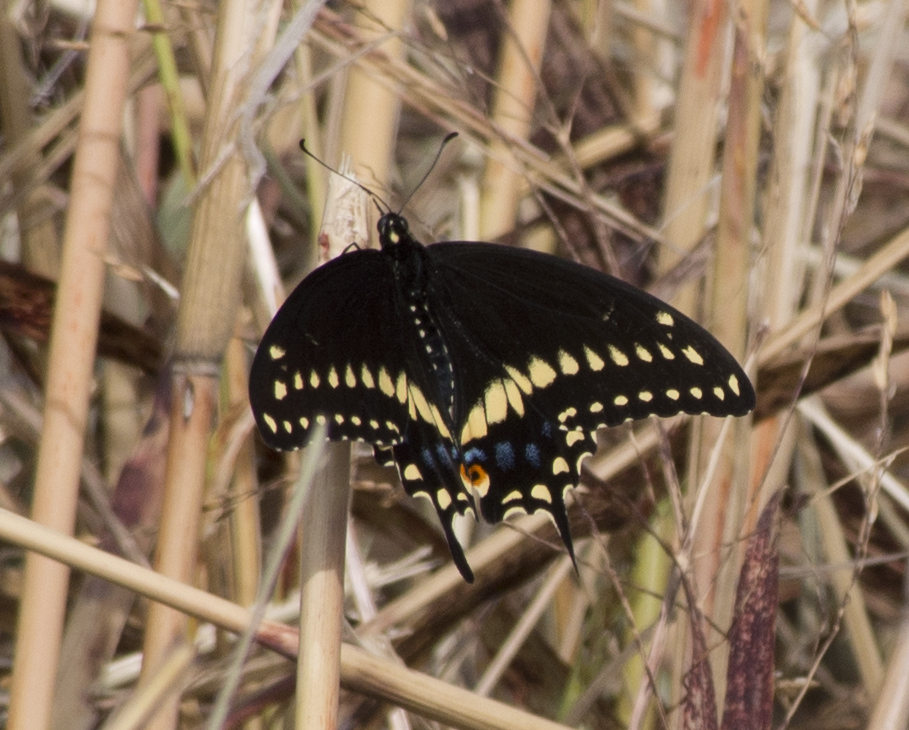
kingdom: Animalia
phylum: Arthropoda
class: Insecta
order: Lepidoptera
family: Papilionidae
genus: Papilio
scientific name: Papilio polyxenes
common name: Black swallowtail
